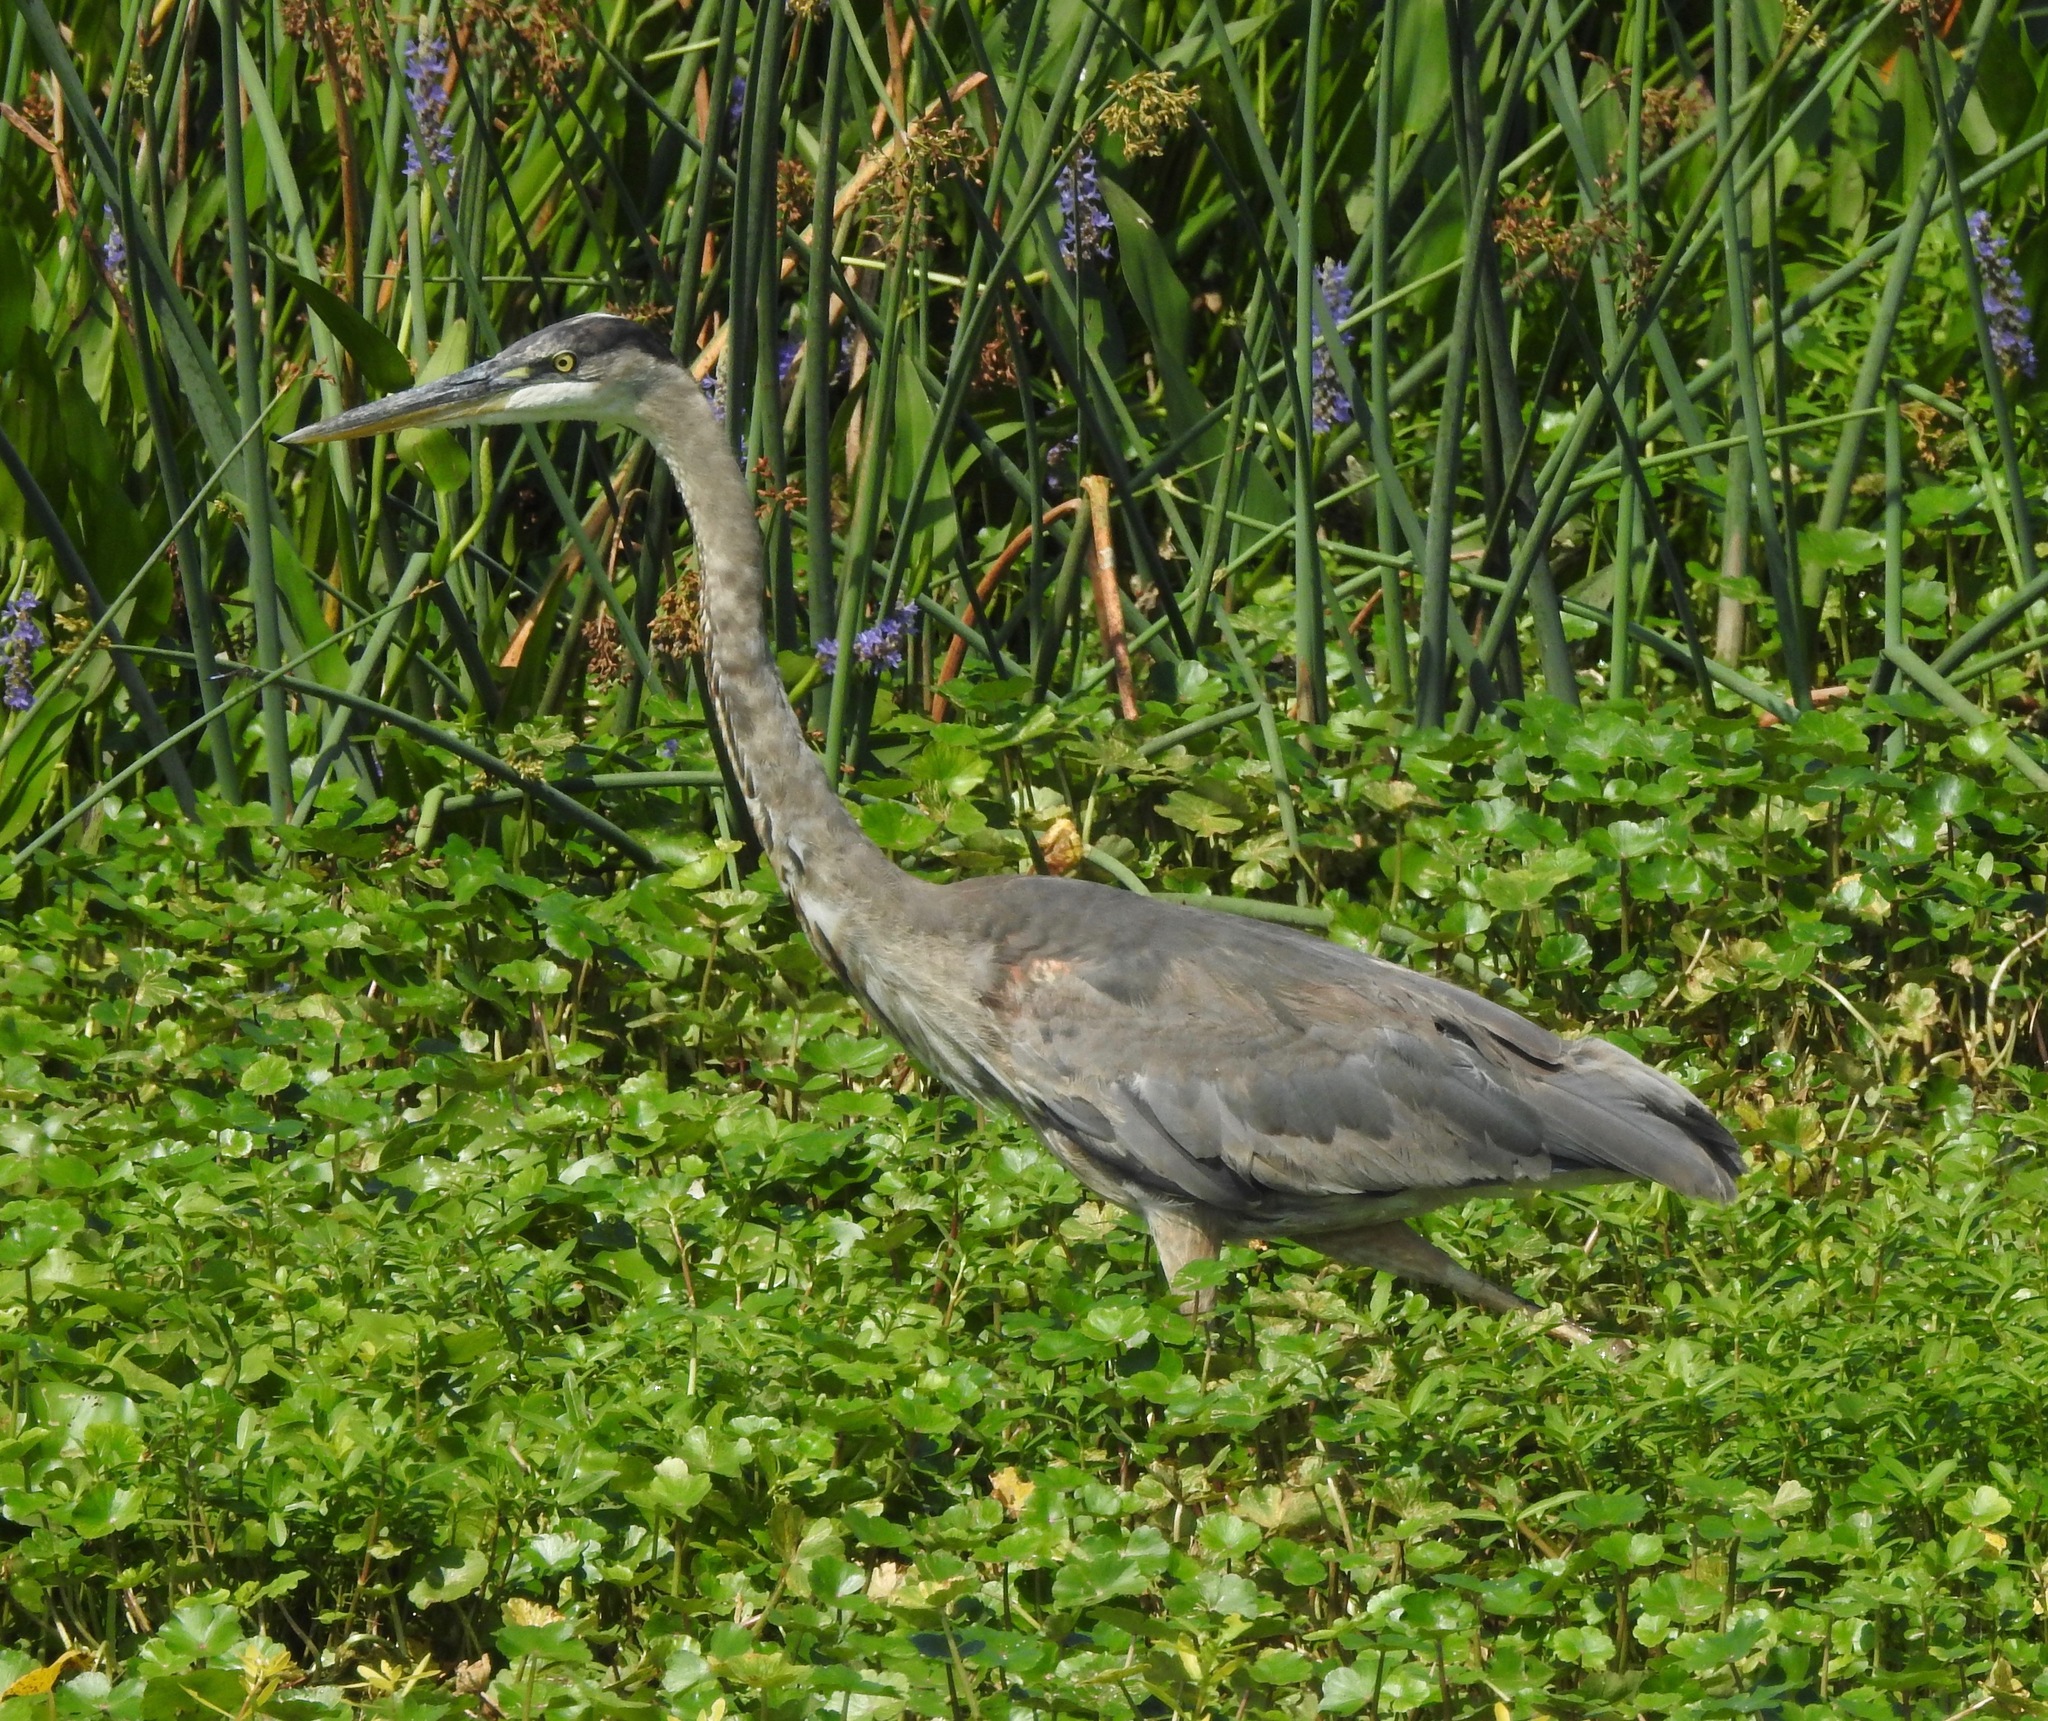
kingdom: Animalia
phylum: Chordata
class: Aves
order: Pelecaniformes
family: Ardeidae
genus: Ardea
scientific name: Ardea herodias
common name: Great blue heron
